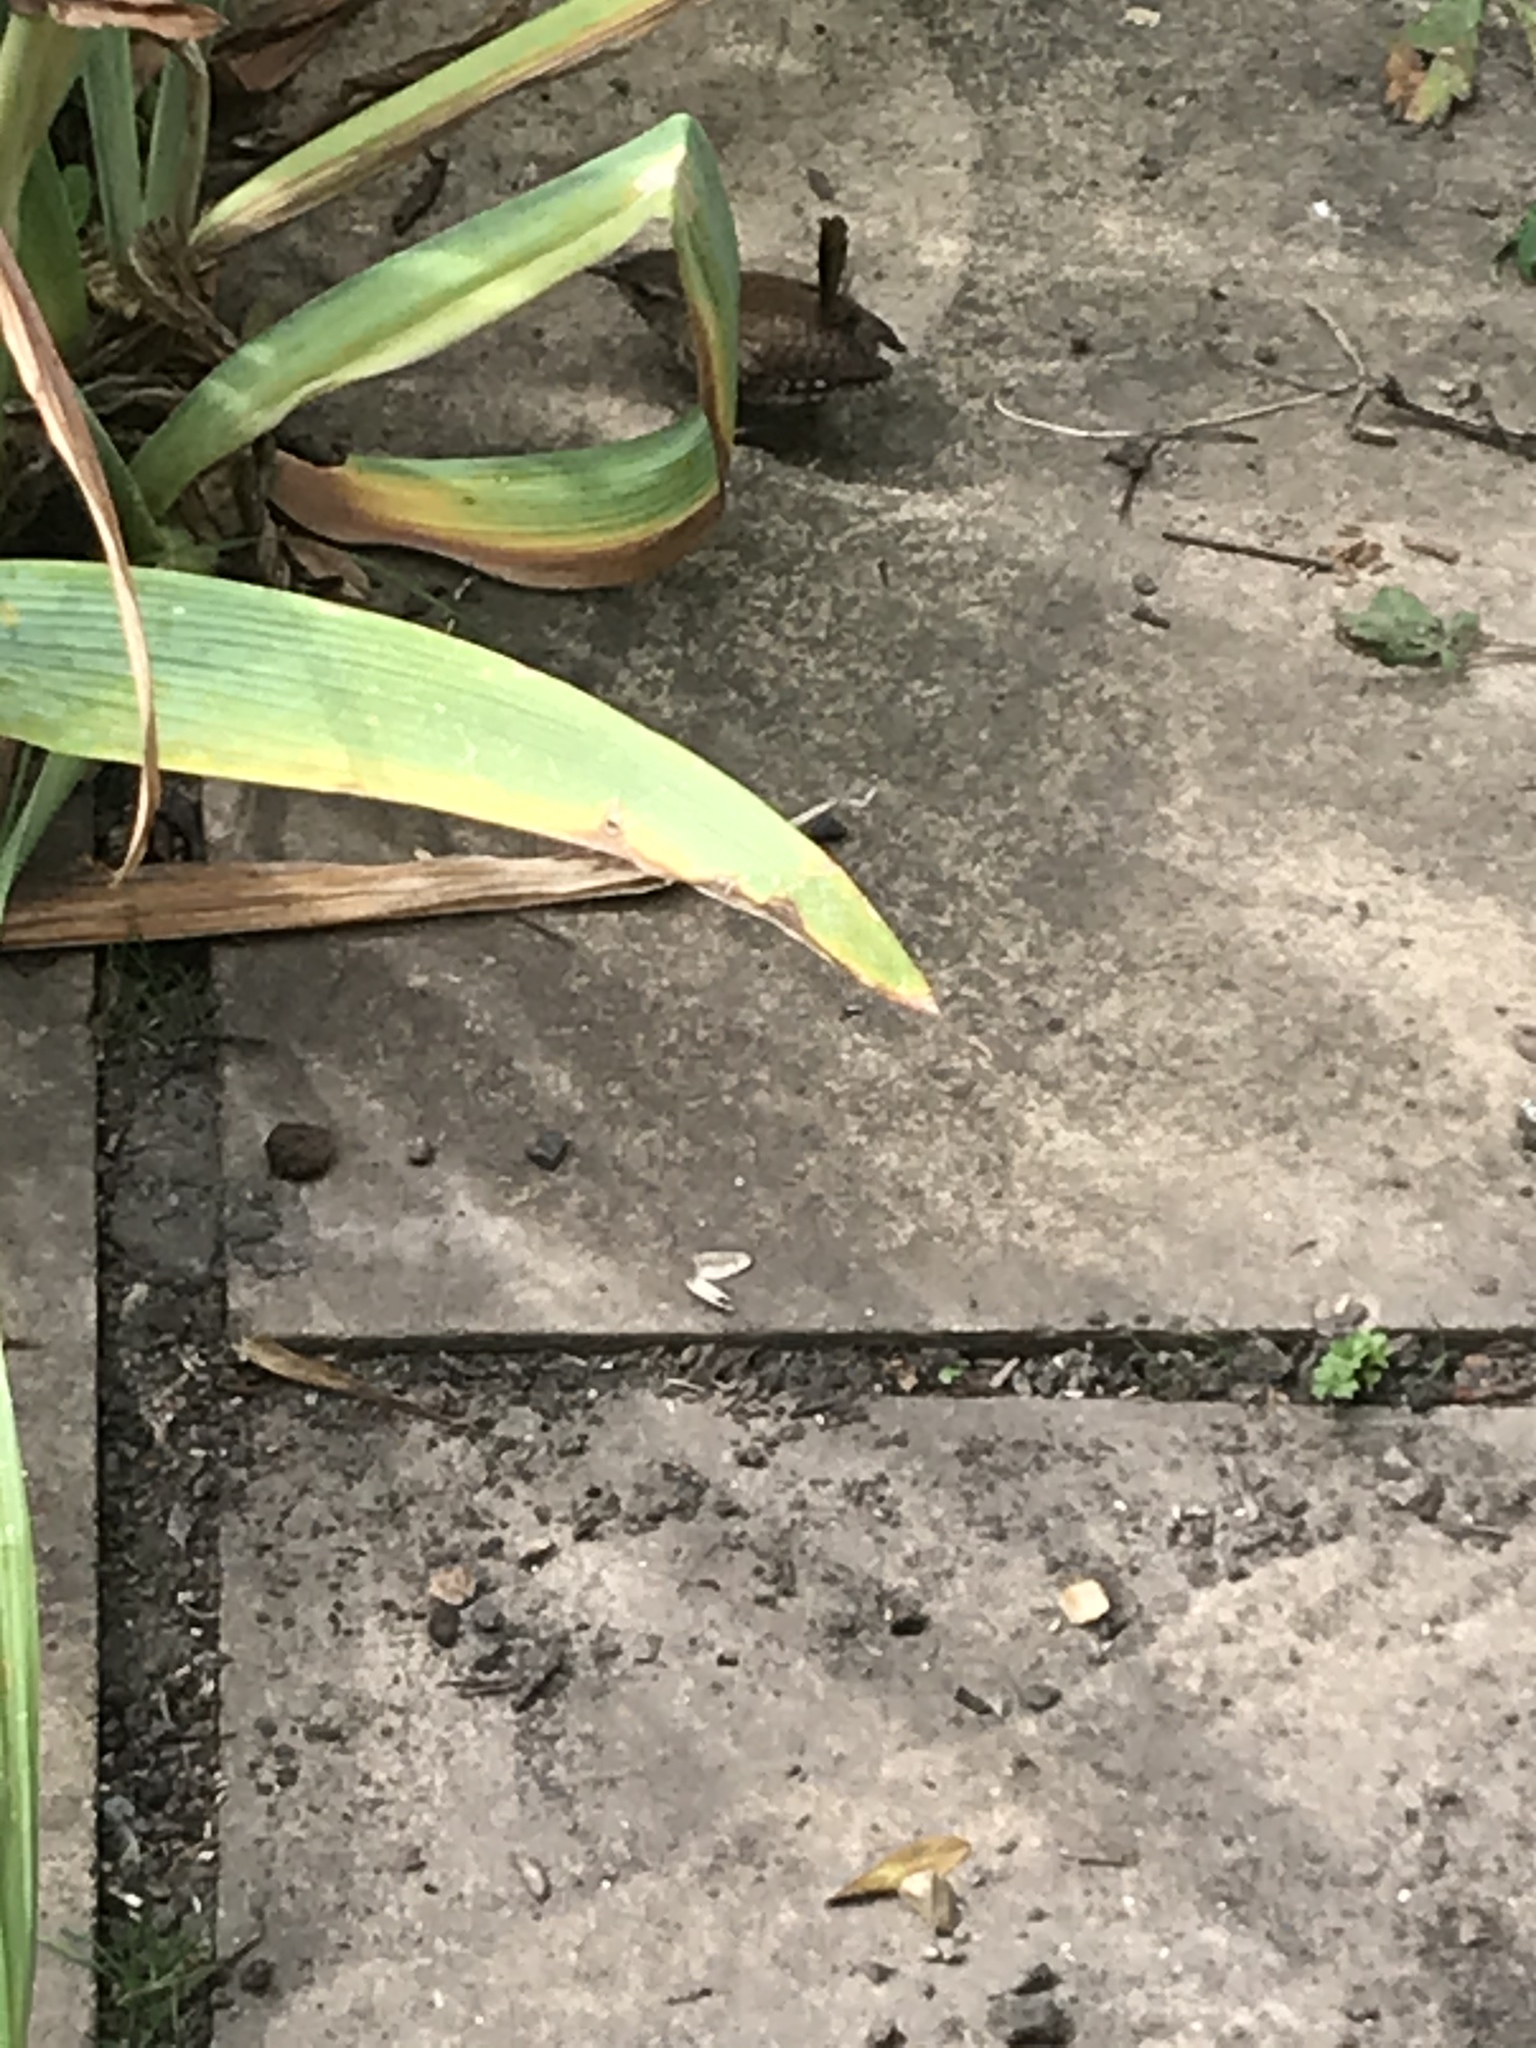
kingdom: Animalia
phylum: Chordata
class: Aves
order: Passeriformes
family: Troglodytidae
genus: Troglodytes
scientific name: Troglodytes troglodytes
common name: Eurasian wren
